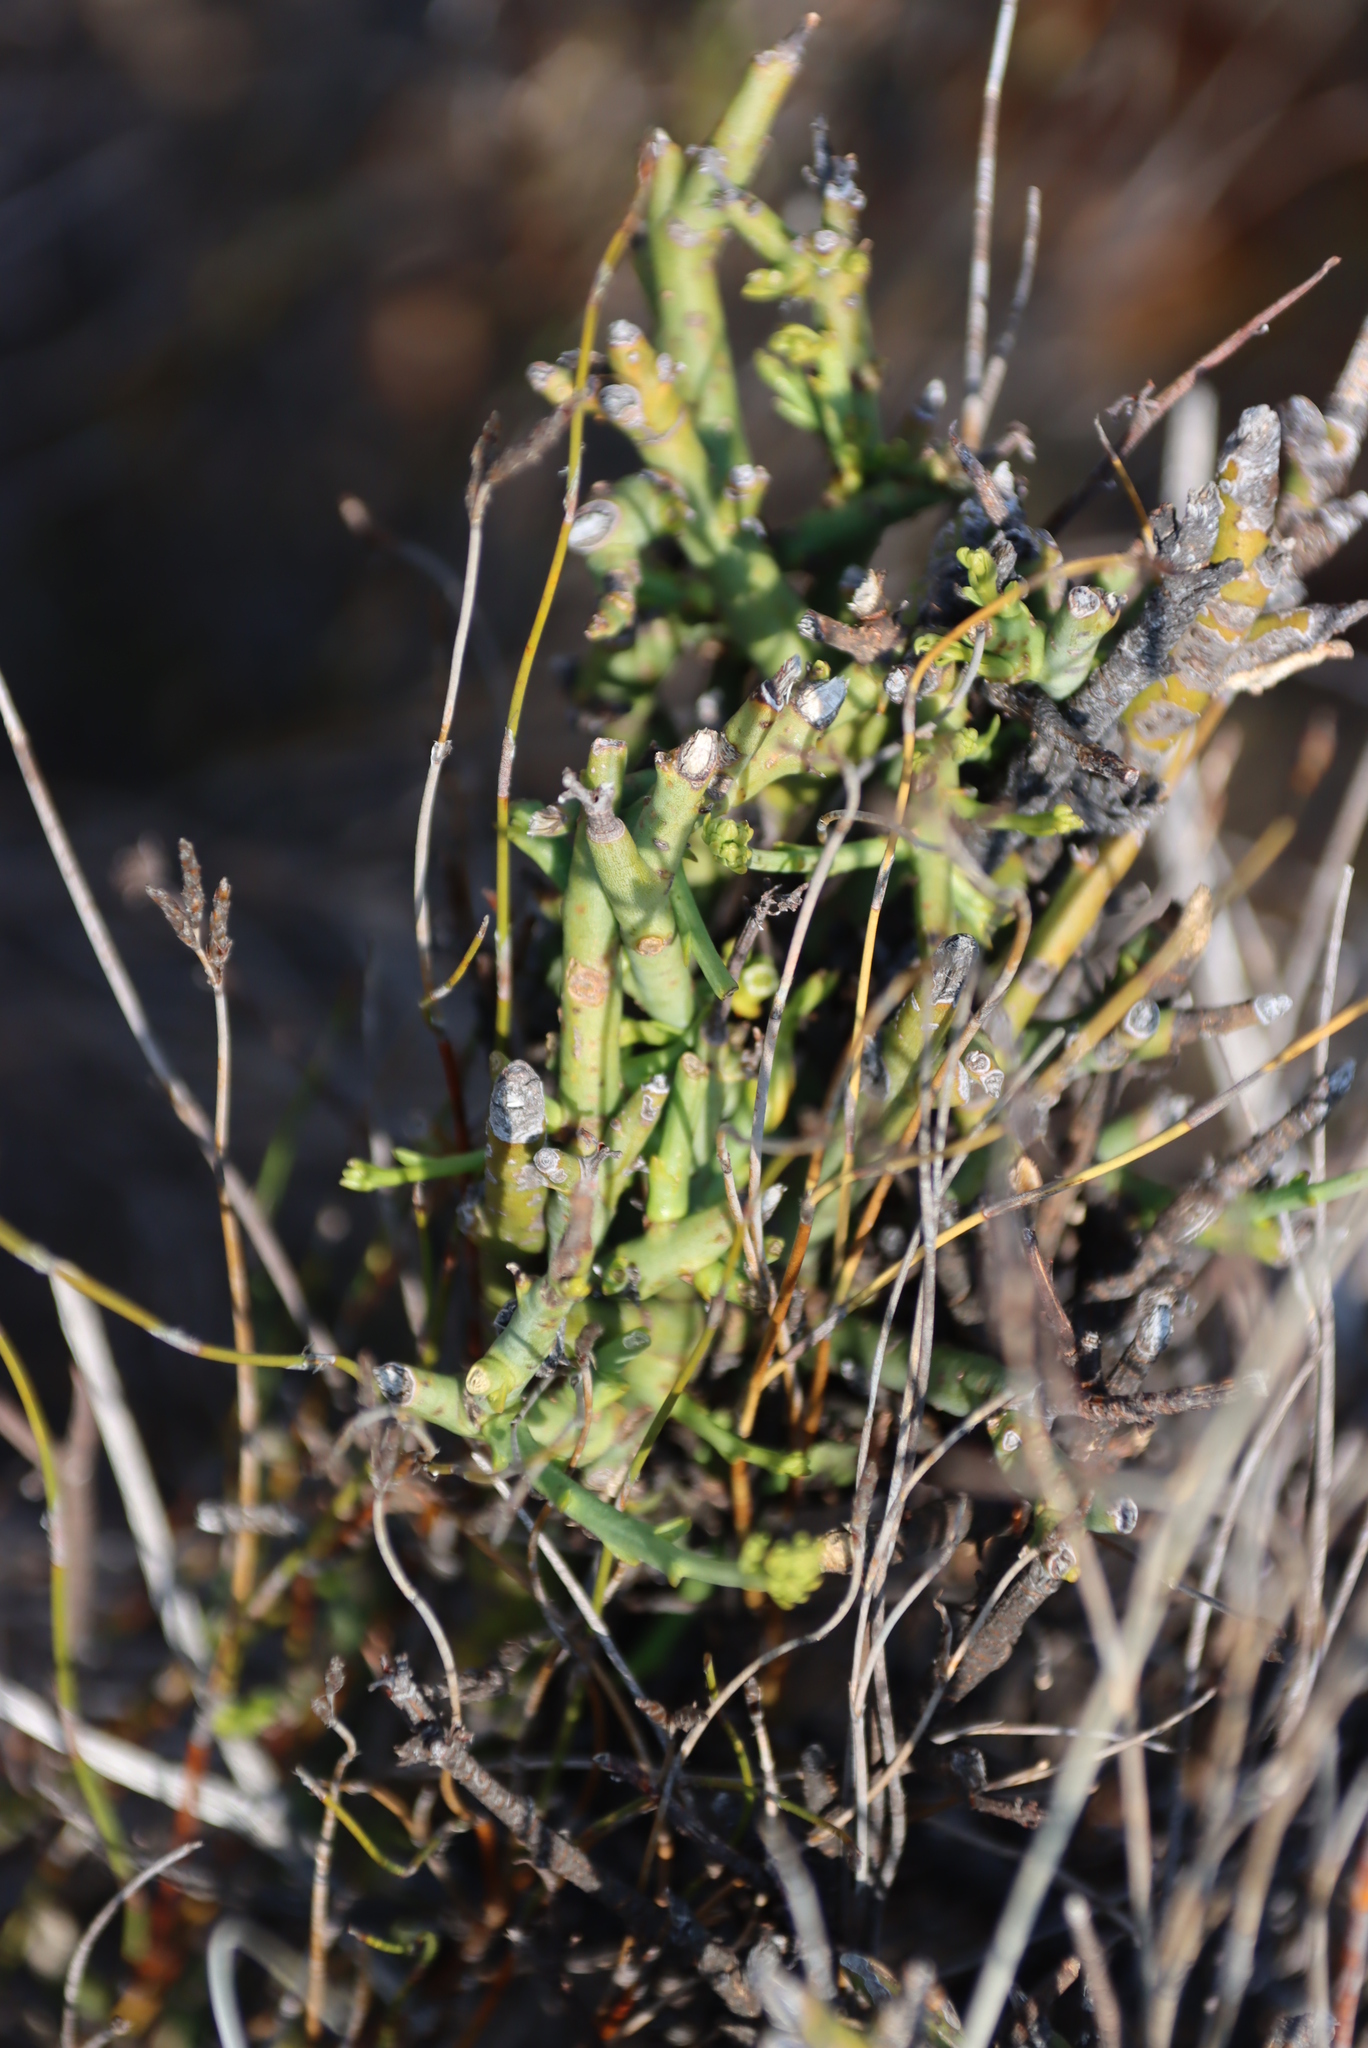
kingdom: Plantae
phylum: Tracheophyta
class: Magnoliopsida
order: Santalales
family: Thesiaceae
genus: Thesium
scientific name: Thesium hystrix
